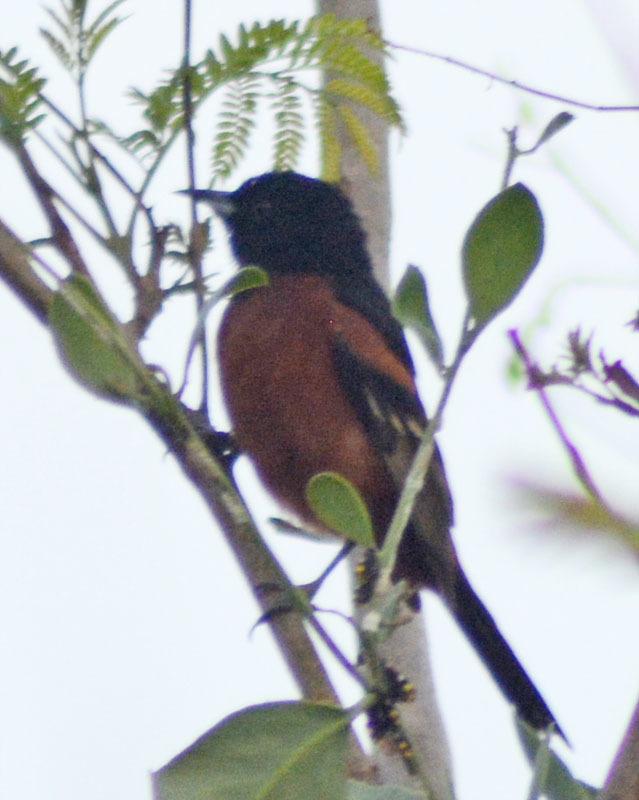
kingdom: Animalia
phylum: Chordata
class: Aves
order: Passeriformes
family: Icteridae
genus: Icterus
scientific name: Icterus spurius
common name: Orchard oriole
